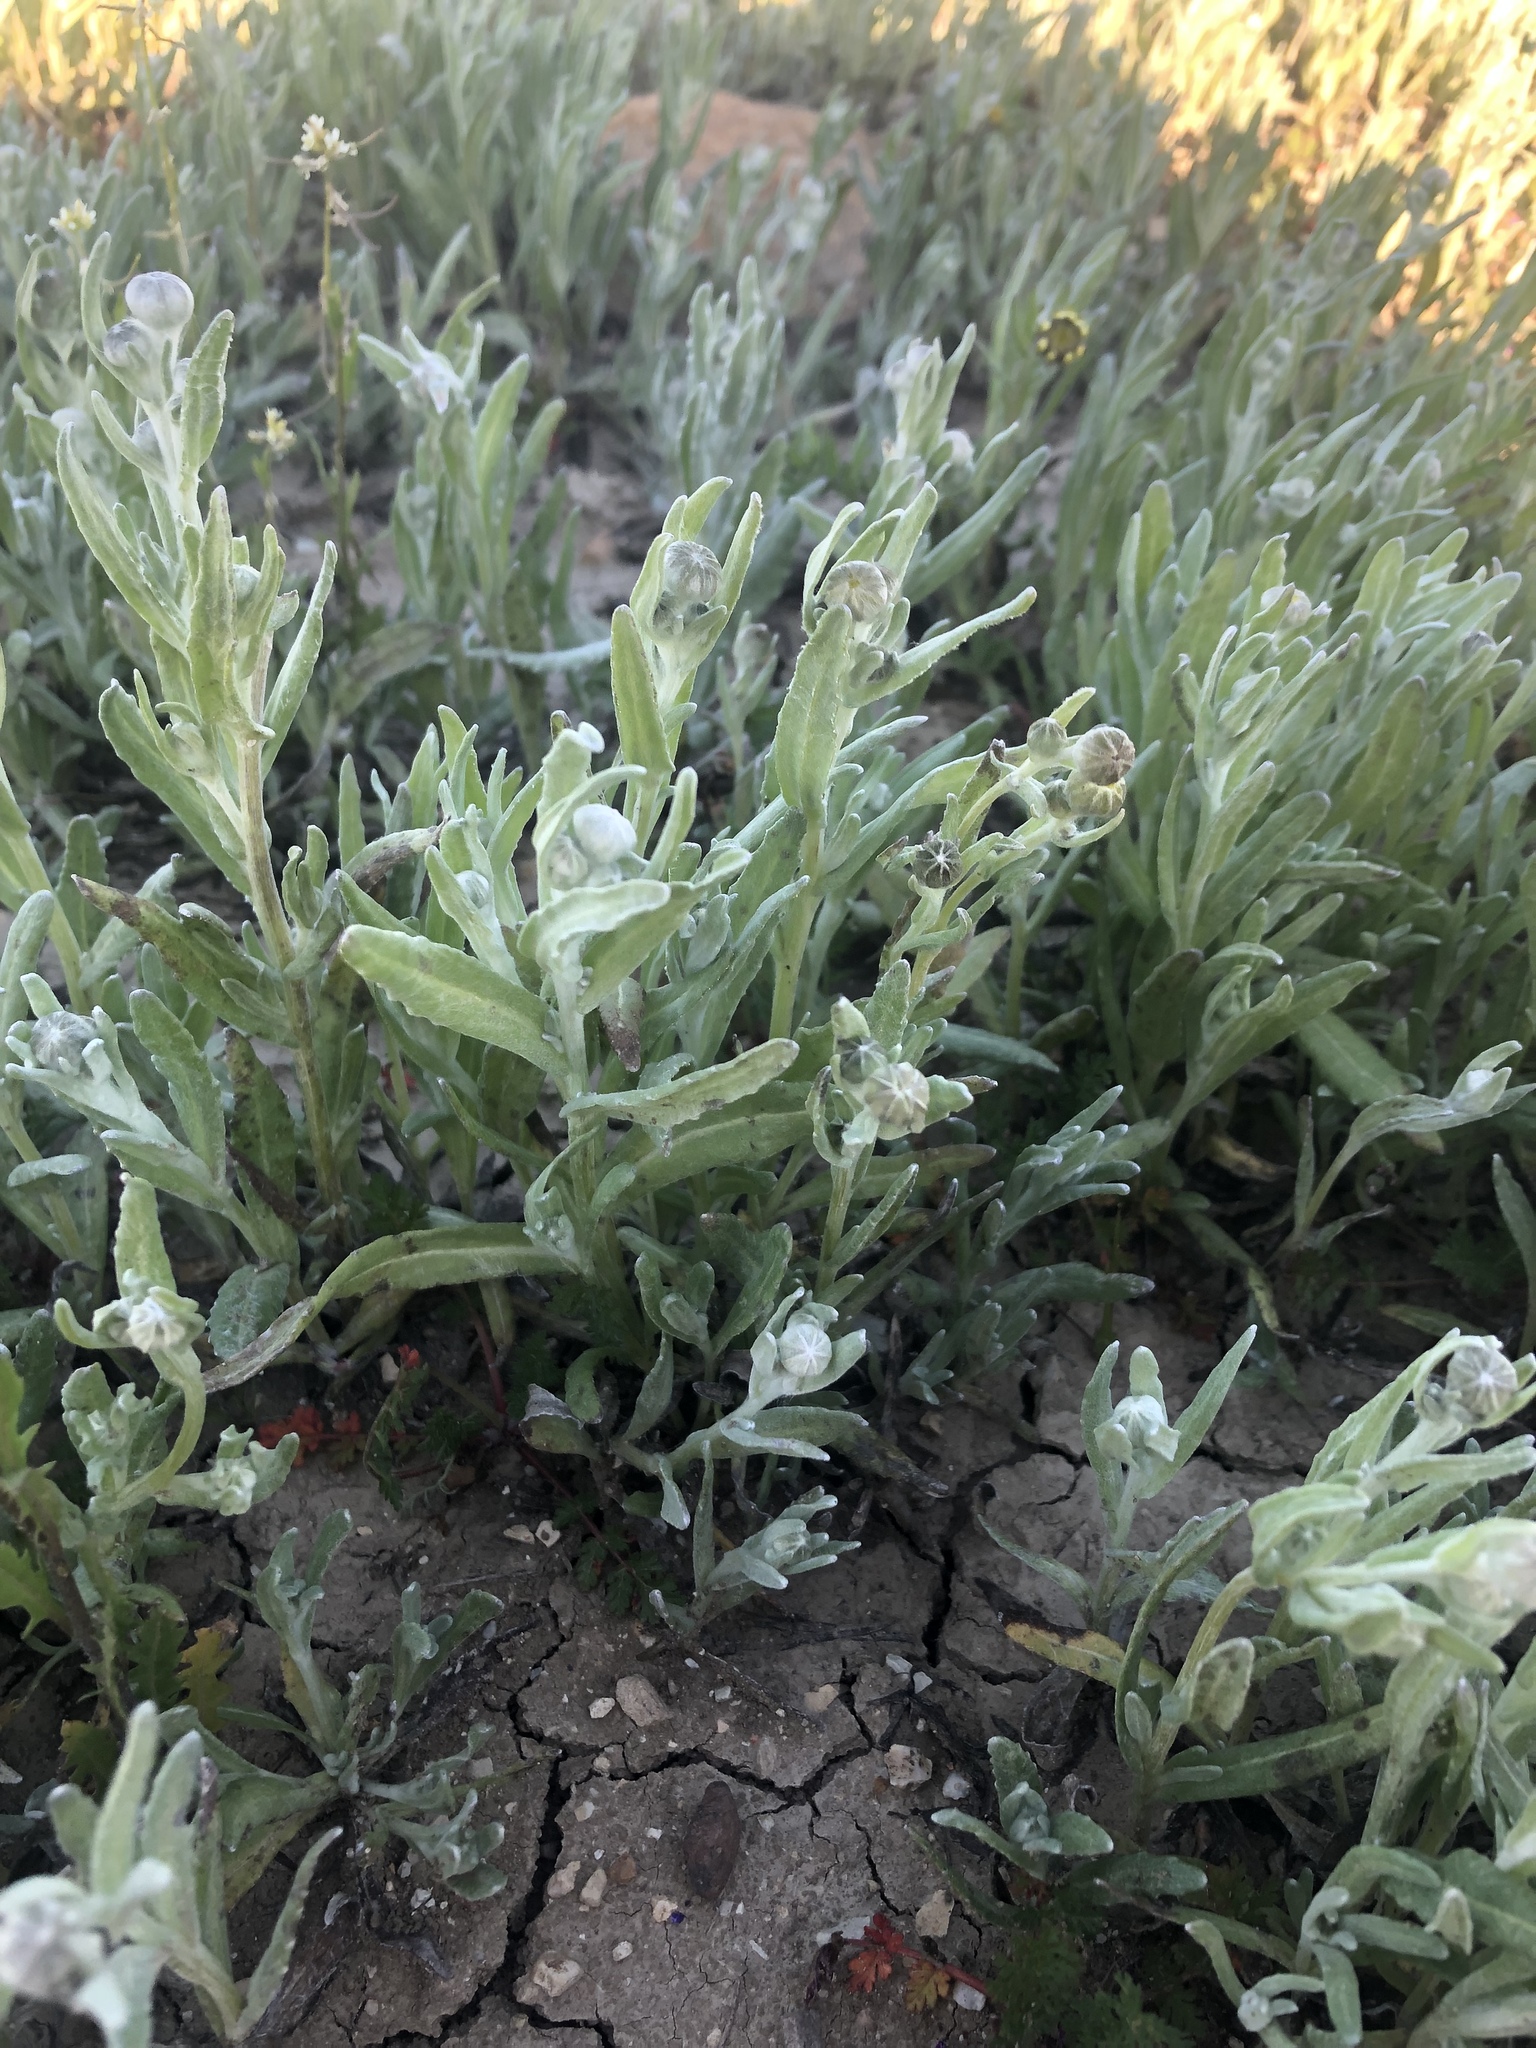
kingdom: Plantae
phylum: Tracheophyta
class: Magnoliopsida
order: Asterales
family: Asteraceae
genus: Monolopia
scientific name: Monolopia stricta
